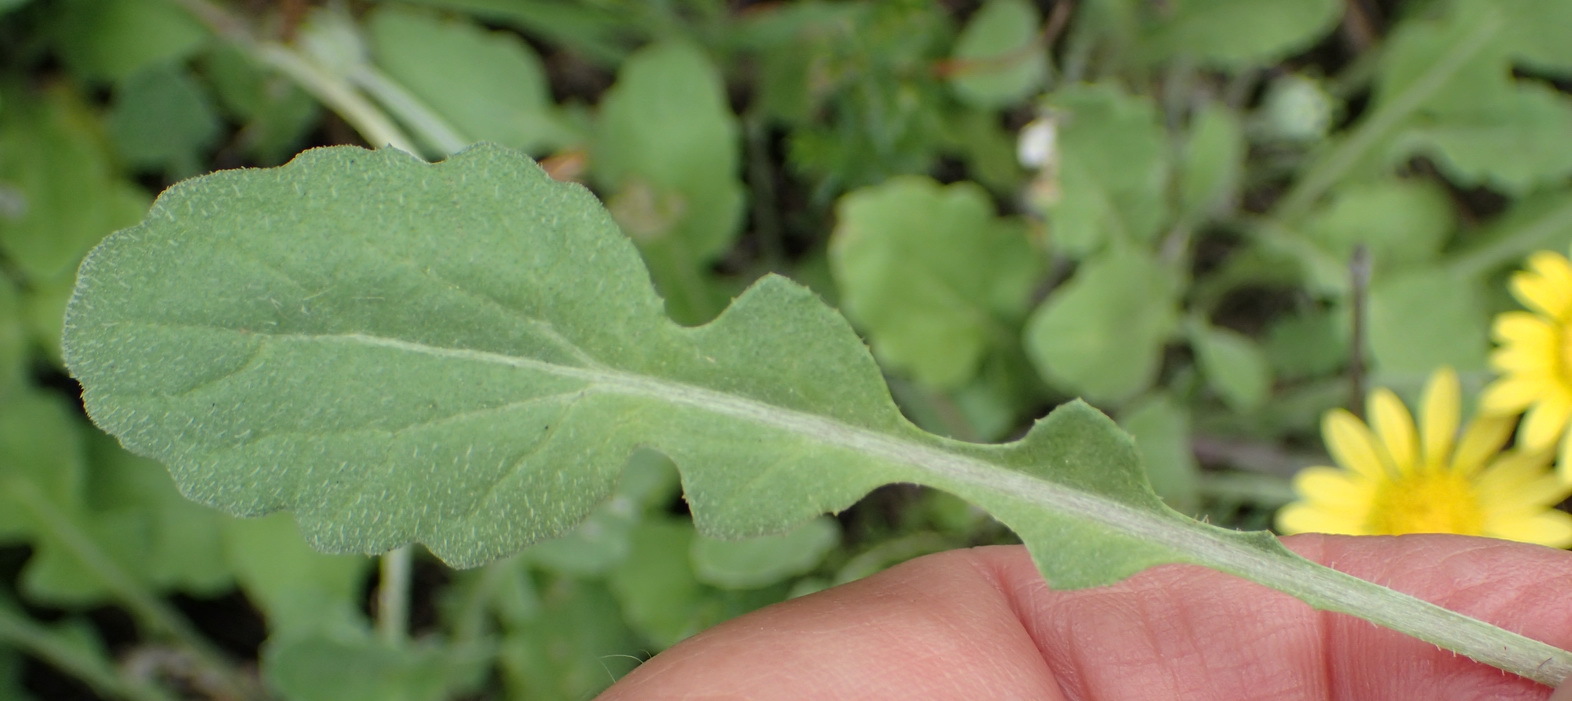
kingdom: Plantae
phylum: Tracheophyta
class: Magnoliopsida
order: Asterales
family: Asteraceae
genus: Arctotis
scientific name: Arctotis arctotoides
